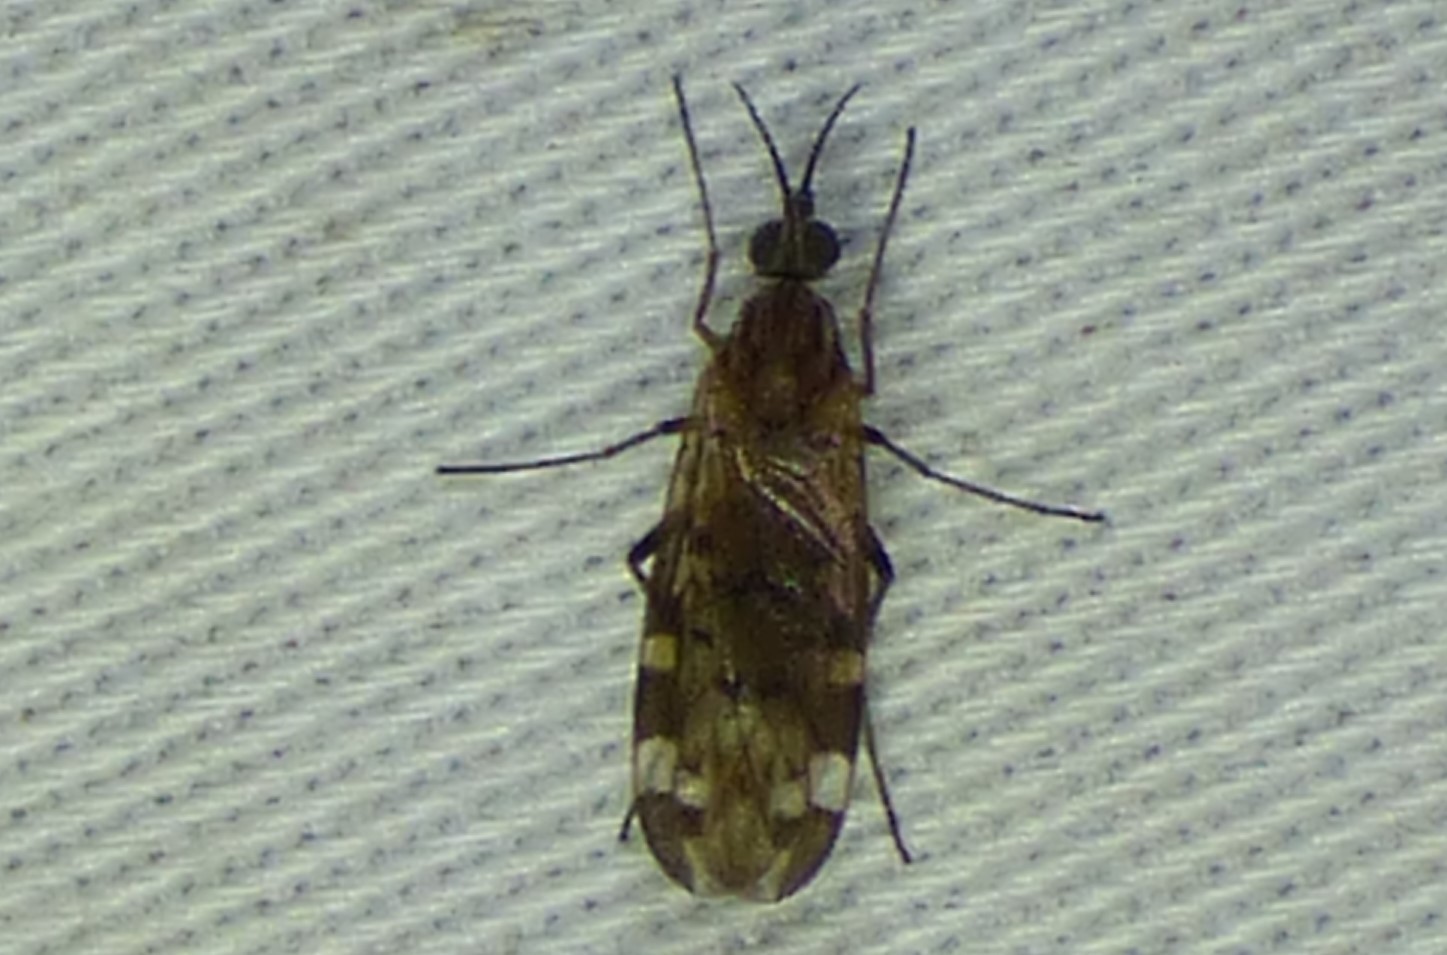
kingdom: Animalia
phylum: Arthropoda
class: Insecta
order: Diptera
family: Anisopodidae
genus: Sylvicola
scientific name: Sylvicola alternata
